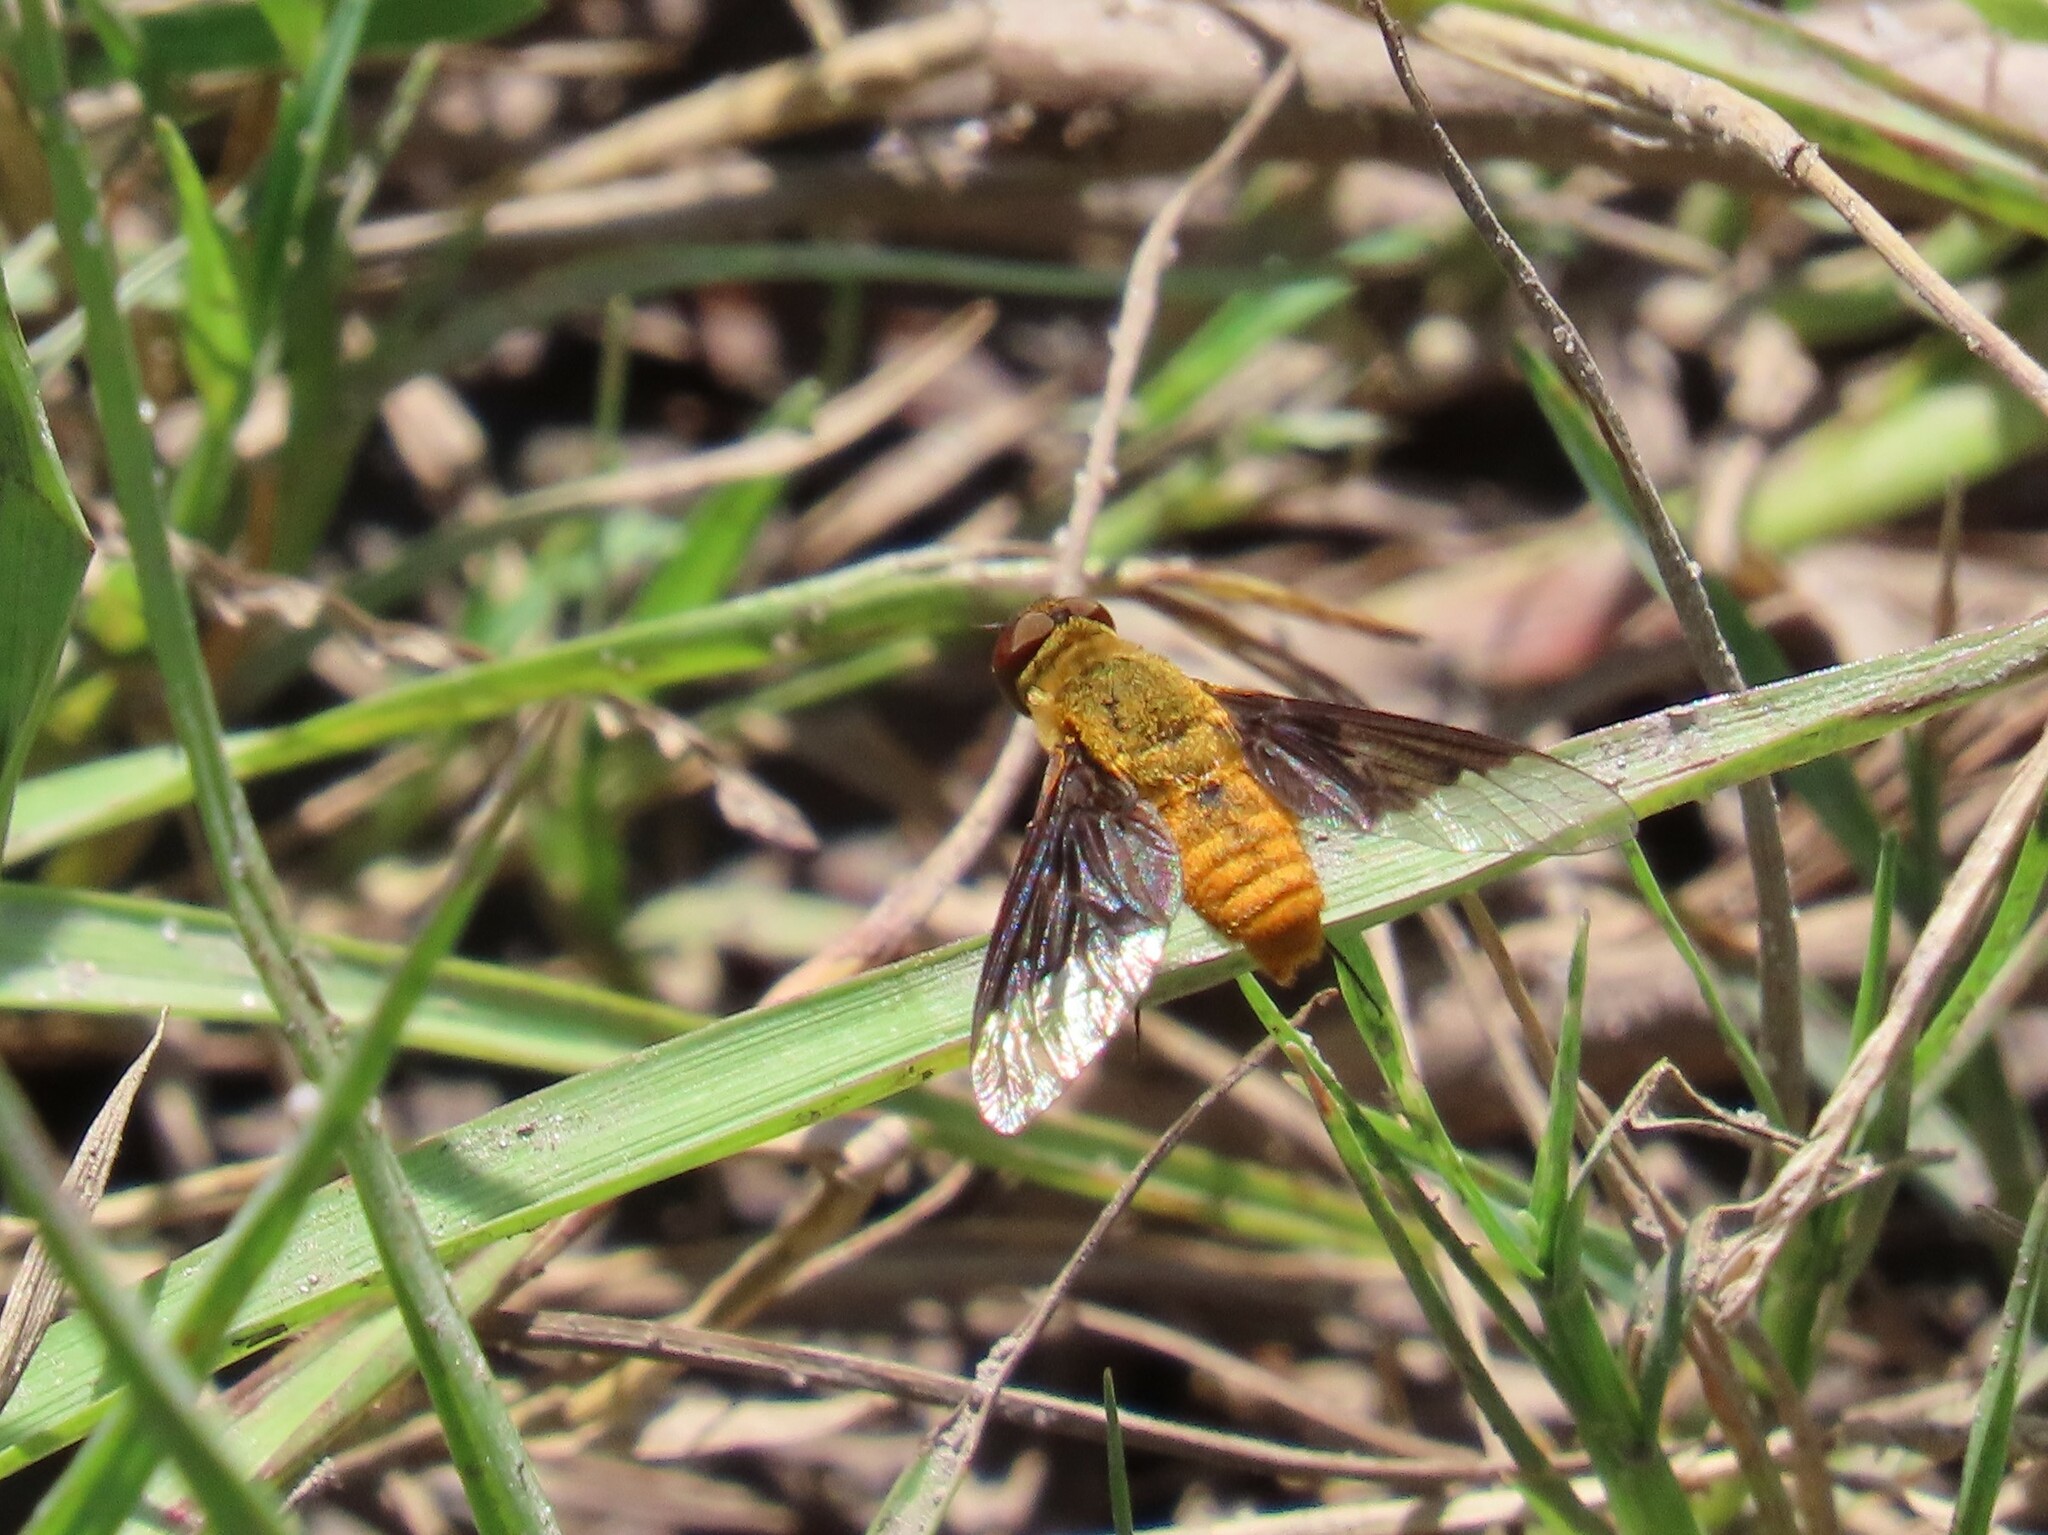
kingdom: Animalia
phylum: Arthropoda
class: Insecta
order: Diptera
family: Bombyliidae
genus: Chrysanthrax
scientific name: Chrysanthrax cypris
